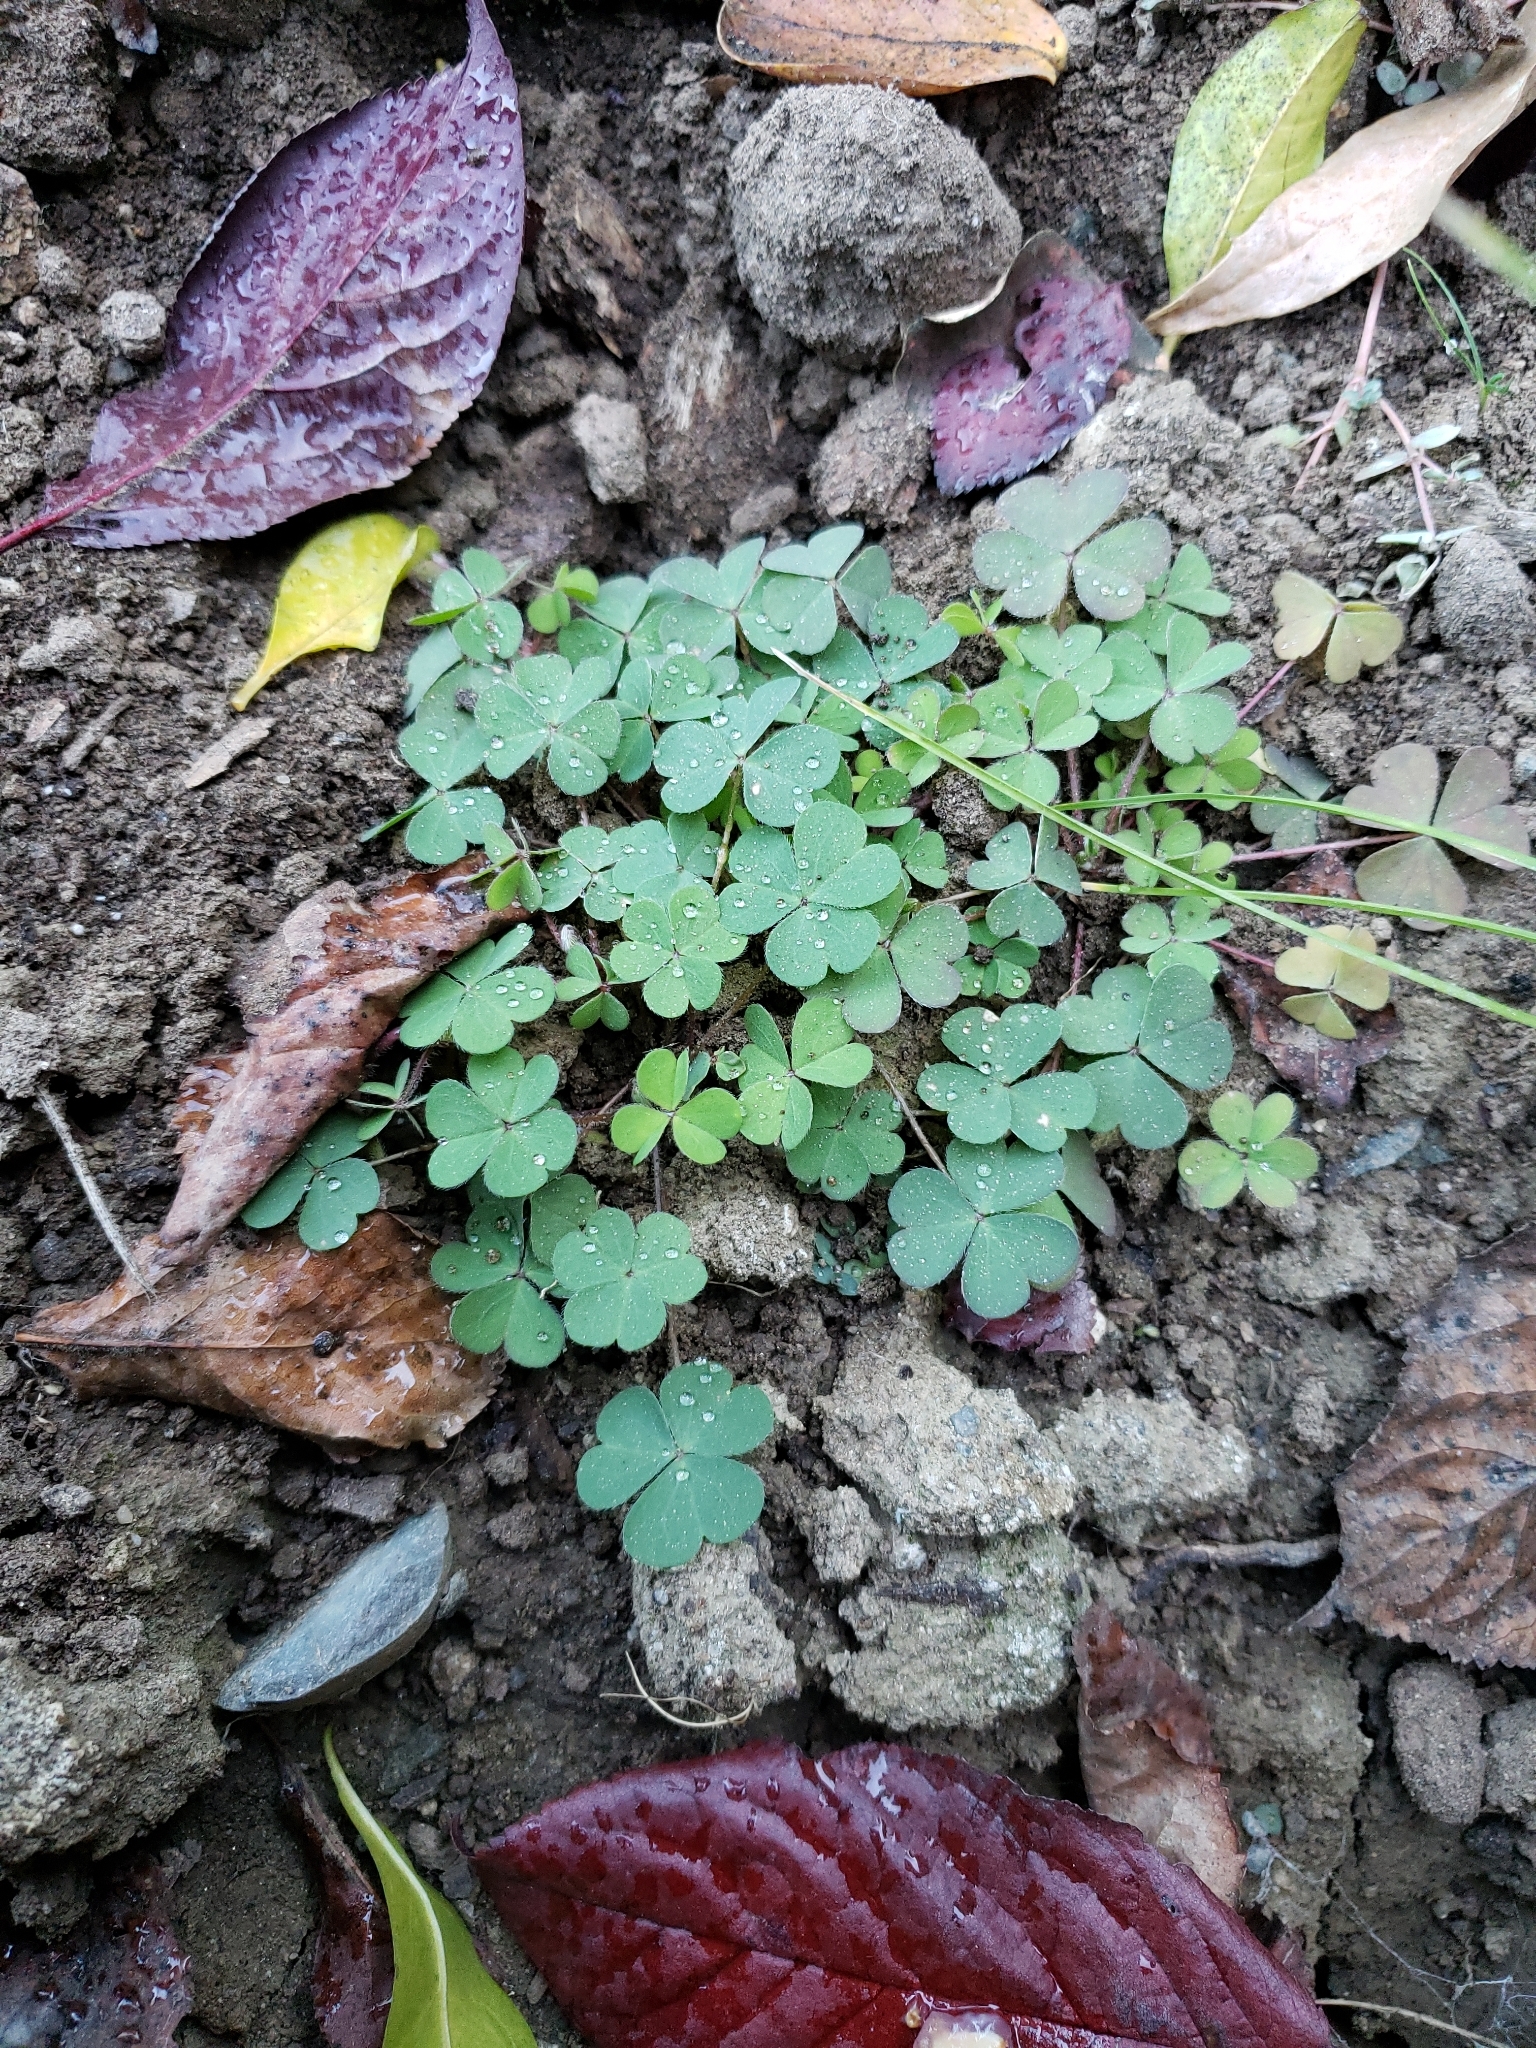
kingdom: Plantae
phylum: Tracheophyta
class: Magnoliopsida
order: Oxalidales
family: Oxalidaceae
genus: Oxalis
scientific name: Oxalis corniculata
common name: Procumbent yellow-sorrel
